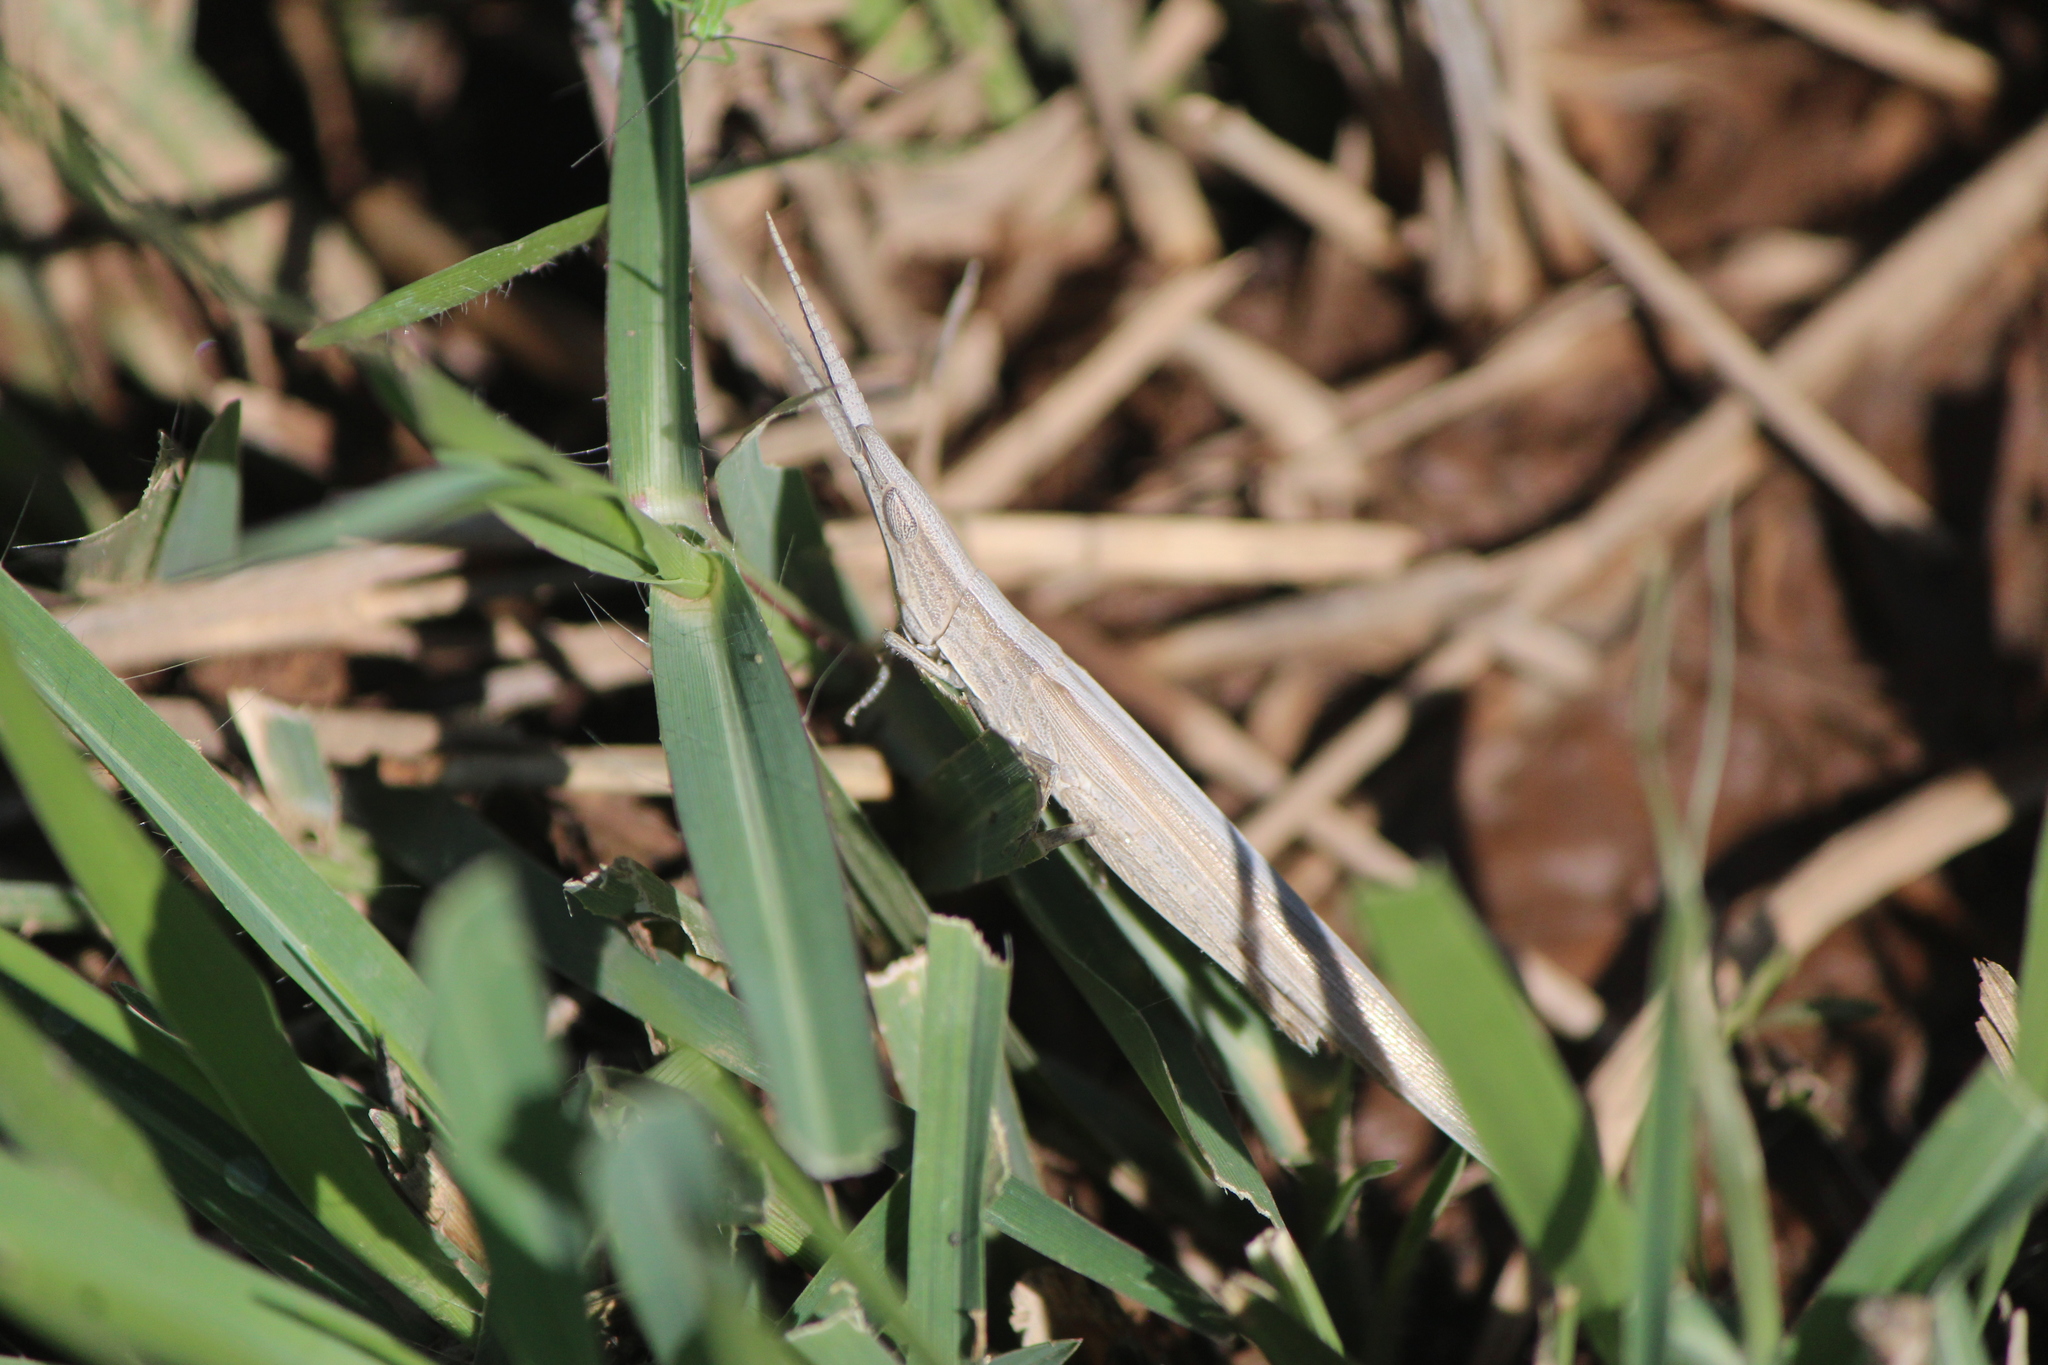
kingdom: Animalia
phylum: Arthropoda
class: Insecta
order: Orthoptera
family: Acrididae
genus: Achurum
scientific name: Achurum sumichrasti
